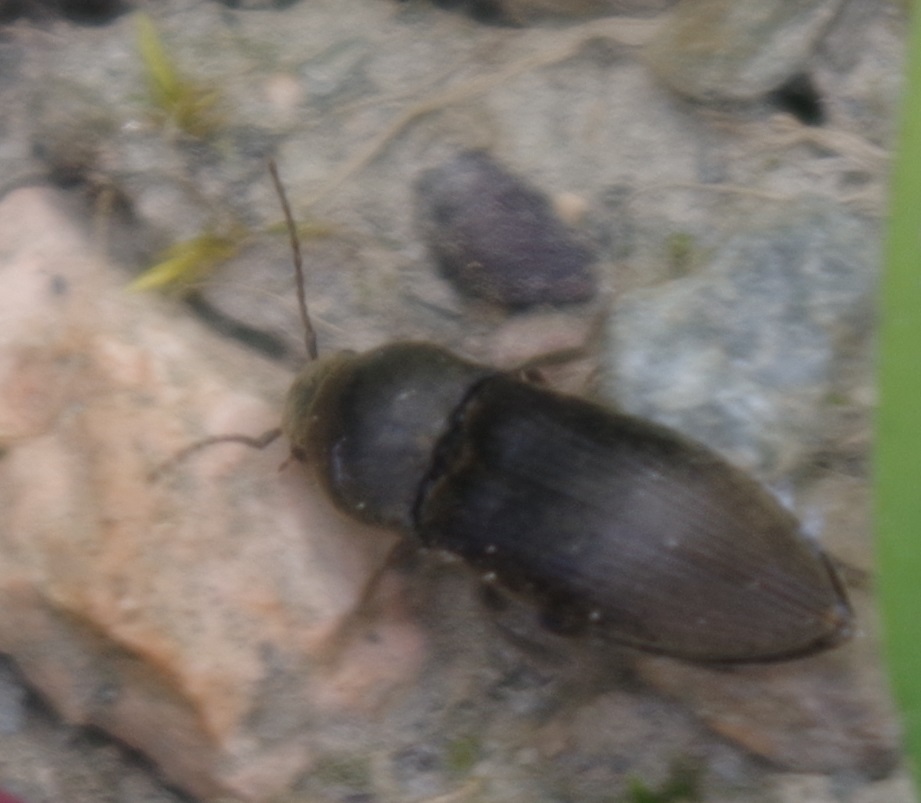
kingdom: Animalia
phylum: Arthropoda
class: Insecta
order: Coleoptera
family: Elateridae
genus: Agriotes
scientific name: Agriotes obscurus
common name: Dusky wireworm
